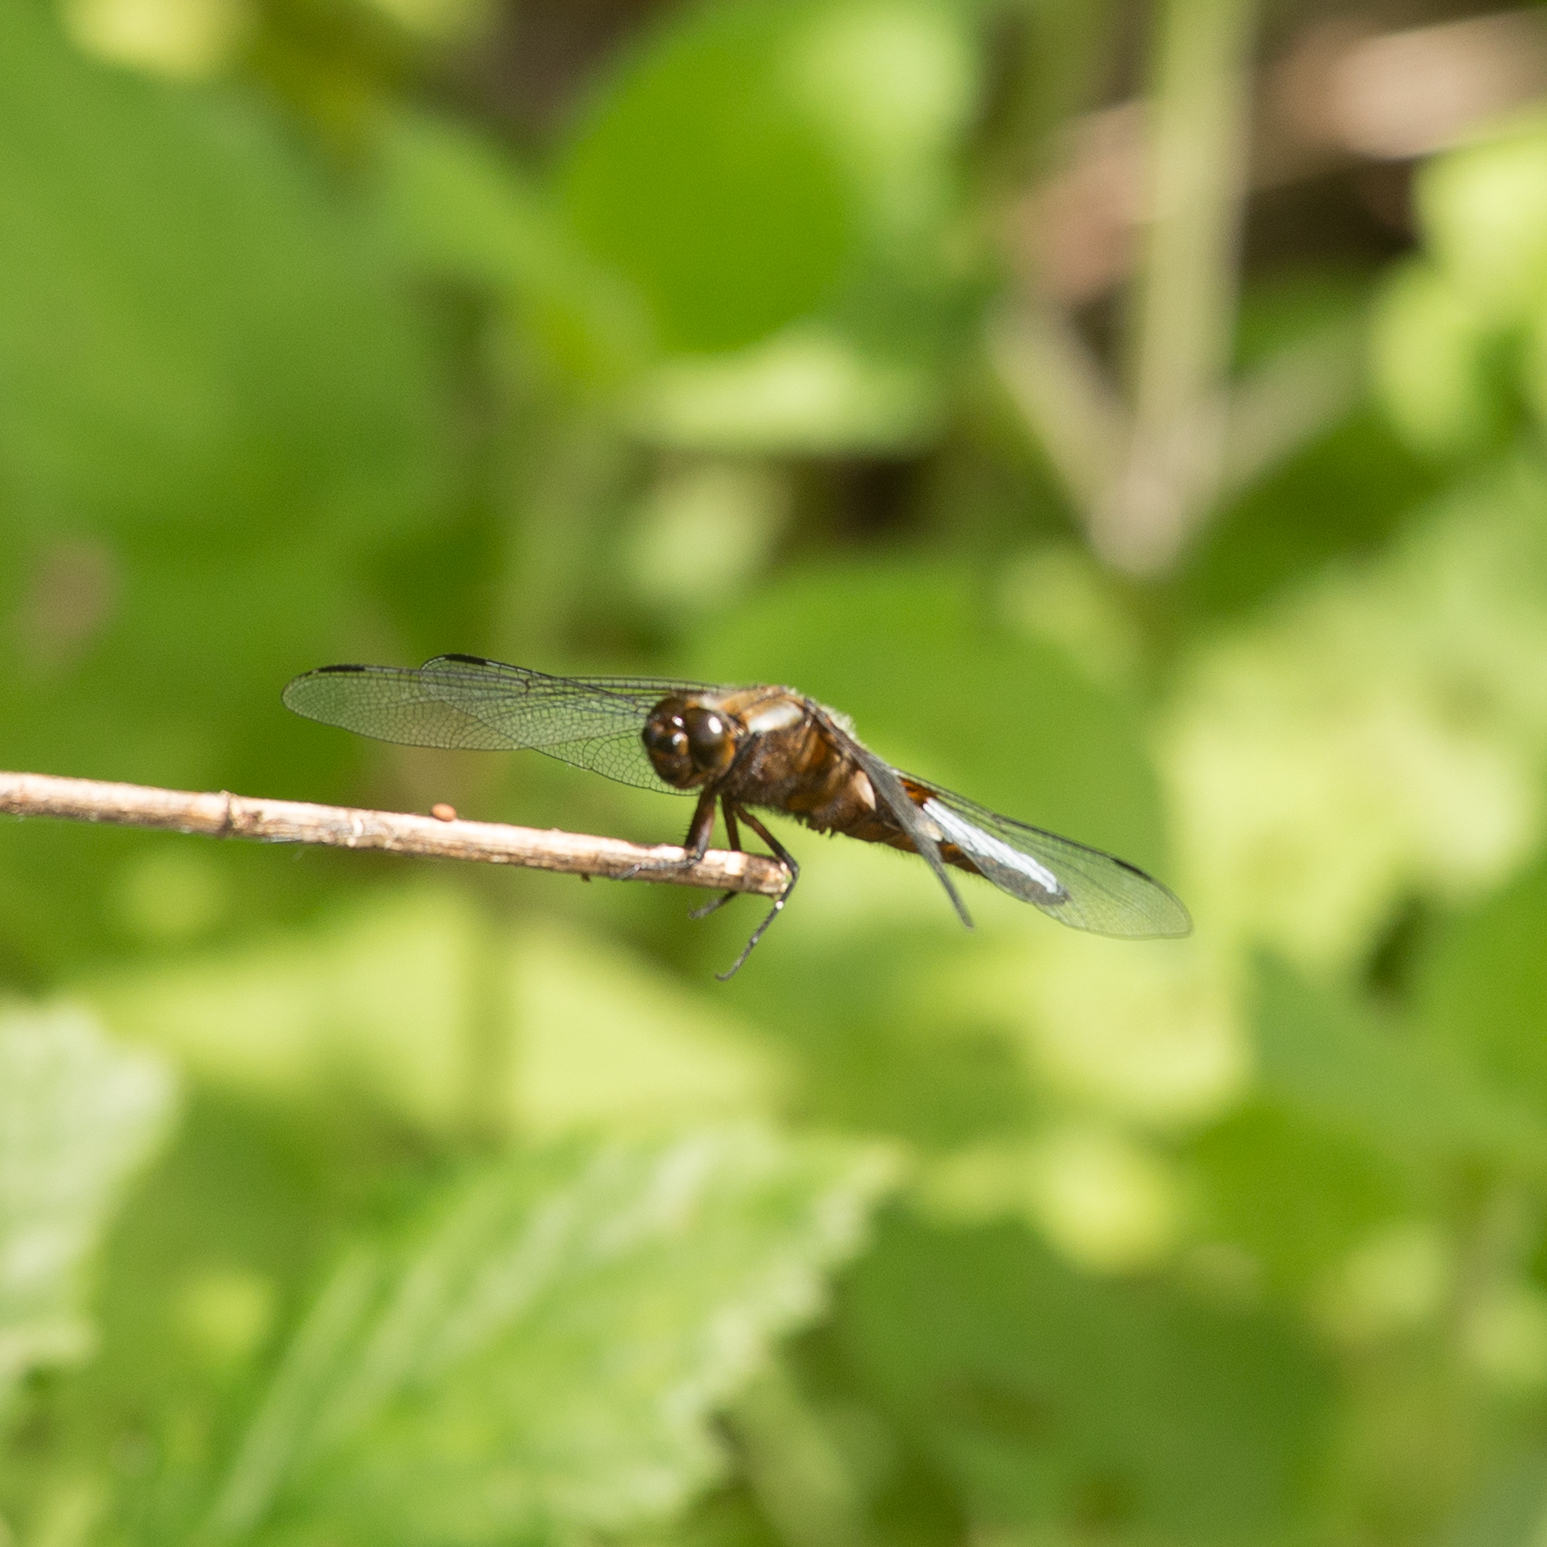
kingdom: Animalia
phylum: Arthropoda
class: Insecta
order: Odonata
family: Libellulidae
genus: Libellula
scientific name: Libellula depressa
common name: Broad-bodied chaser
